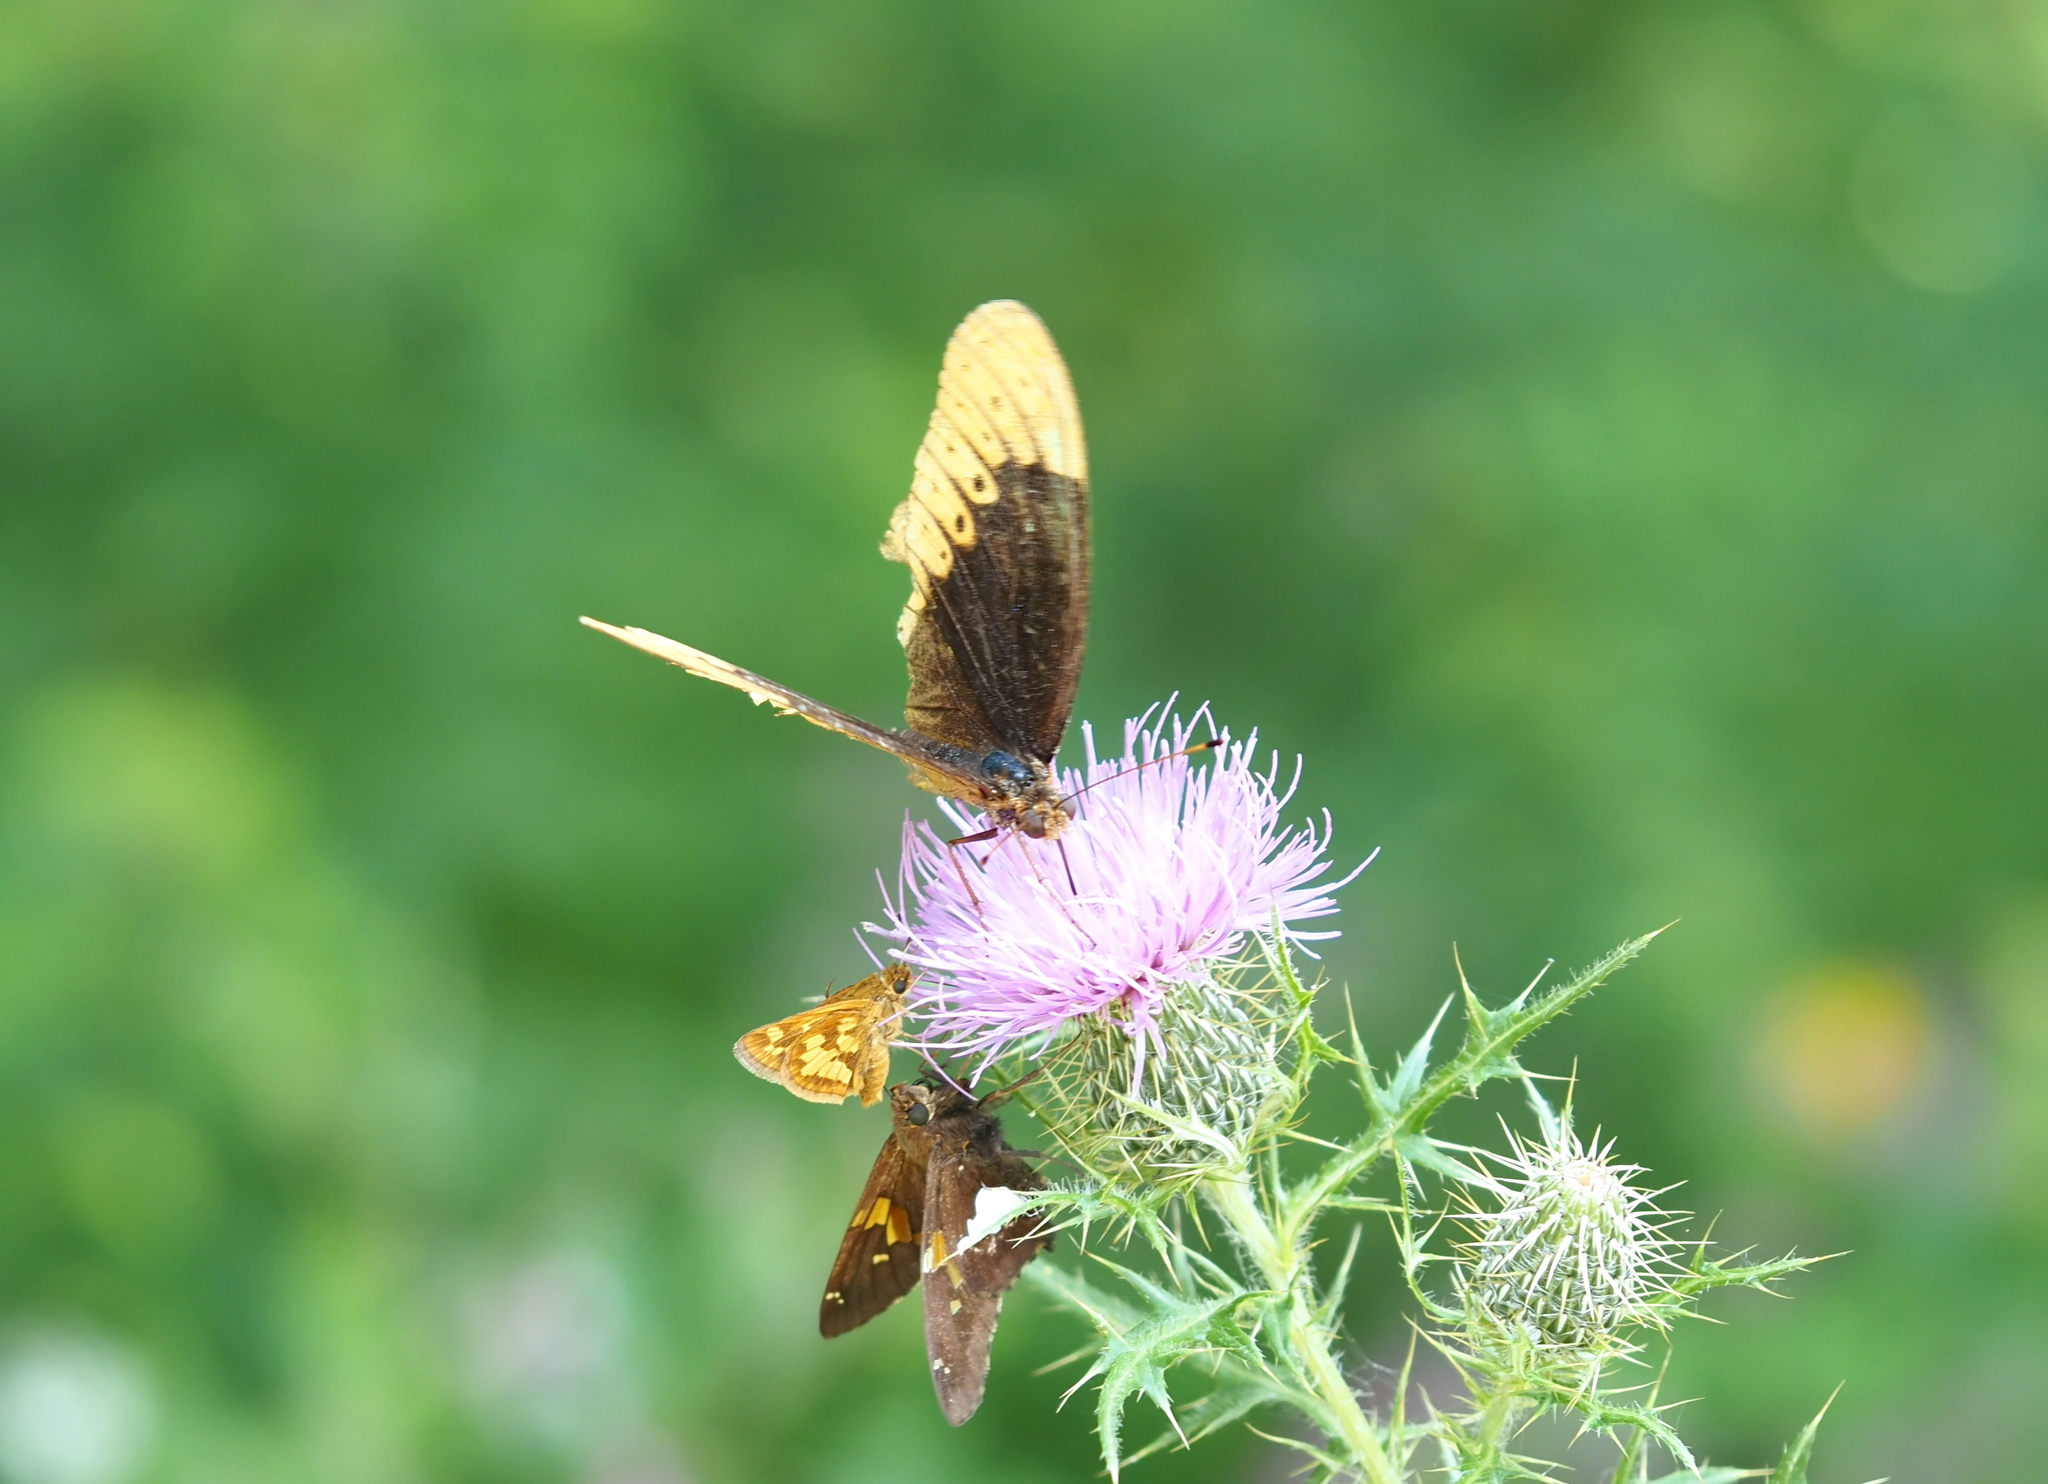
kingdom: Animalia
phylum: Arthropoda
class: Insecta
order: Lepidoptera
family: Hesperiidae
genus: Polites
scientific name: Polites coras
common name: Peck's skipper
